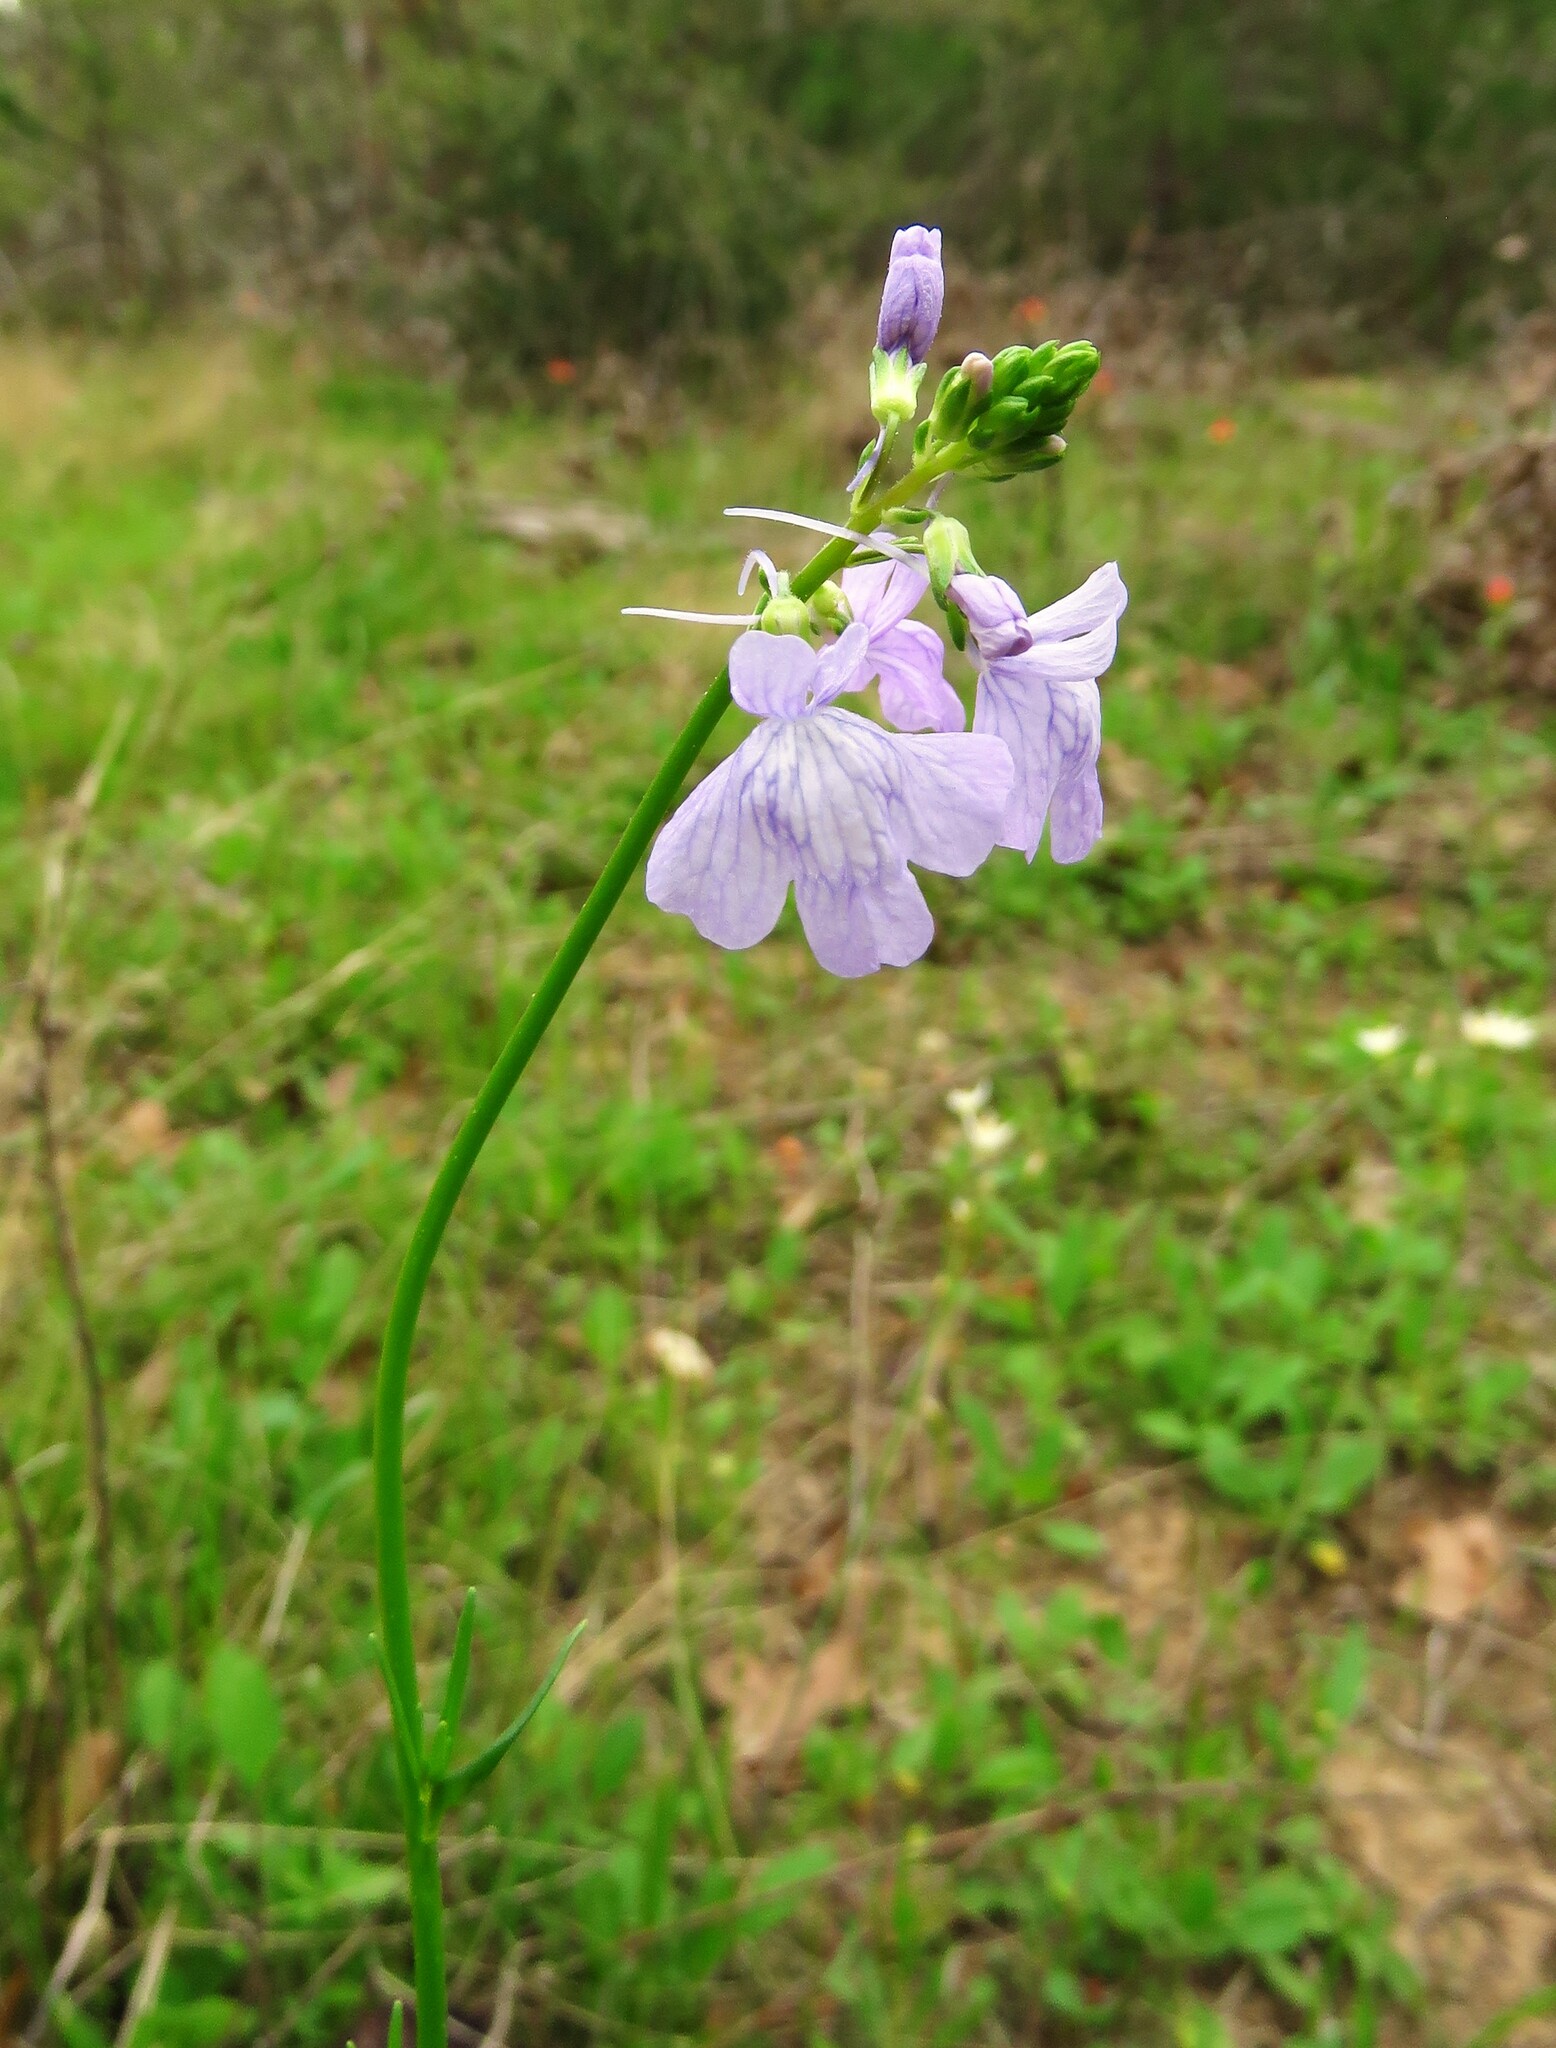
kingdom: Plantae
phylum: Tracheophyta
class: Magnoliopsida
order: Lamiales
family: Plantaginaceae
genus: Nuttallanthus
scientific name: Nuttallanthus texanus
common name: Texas toadflax
